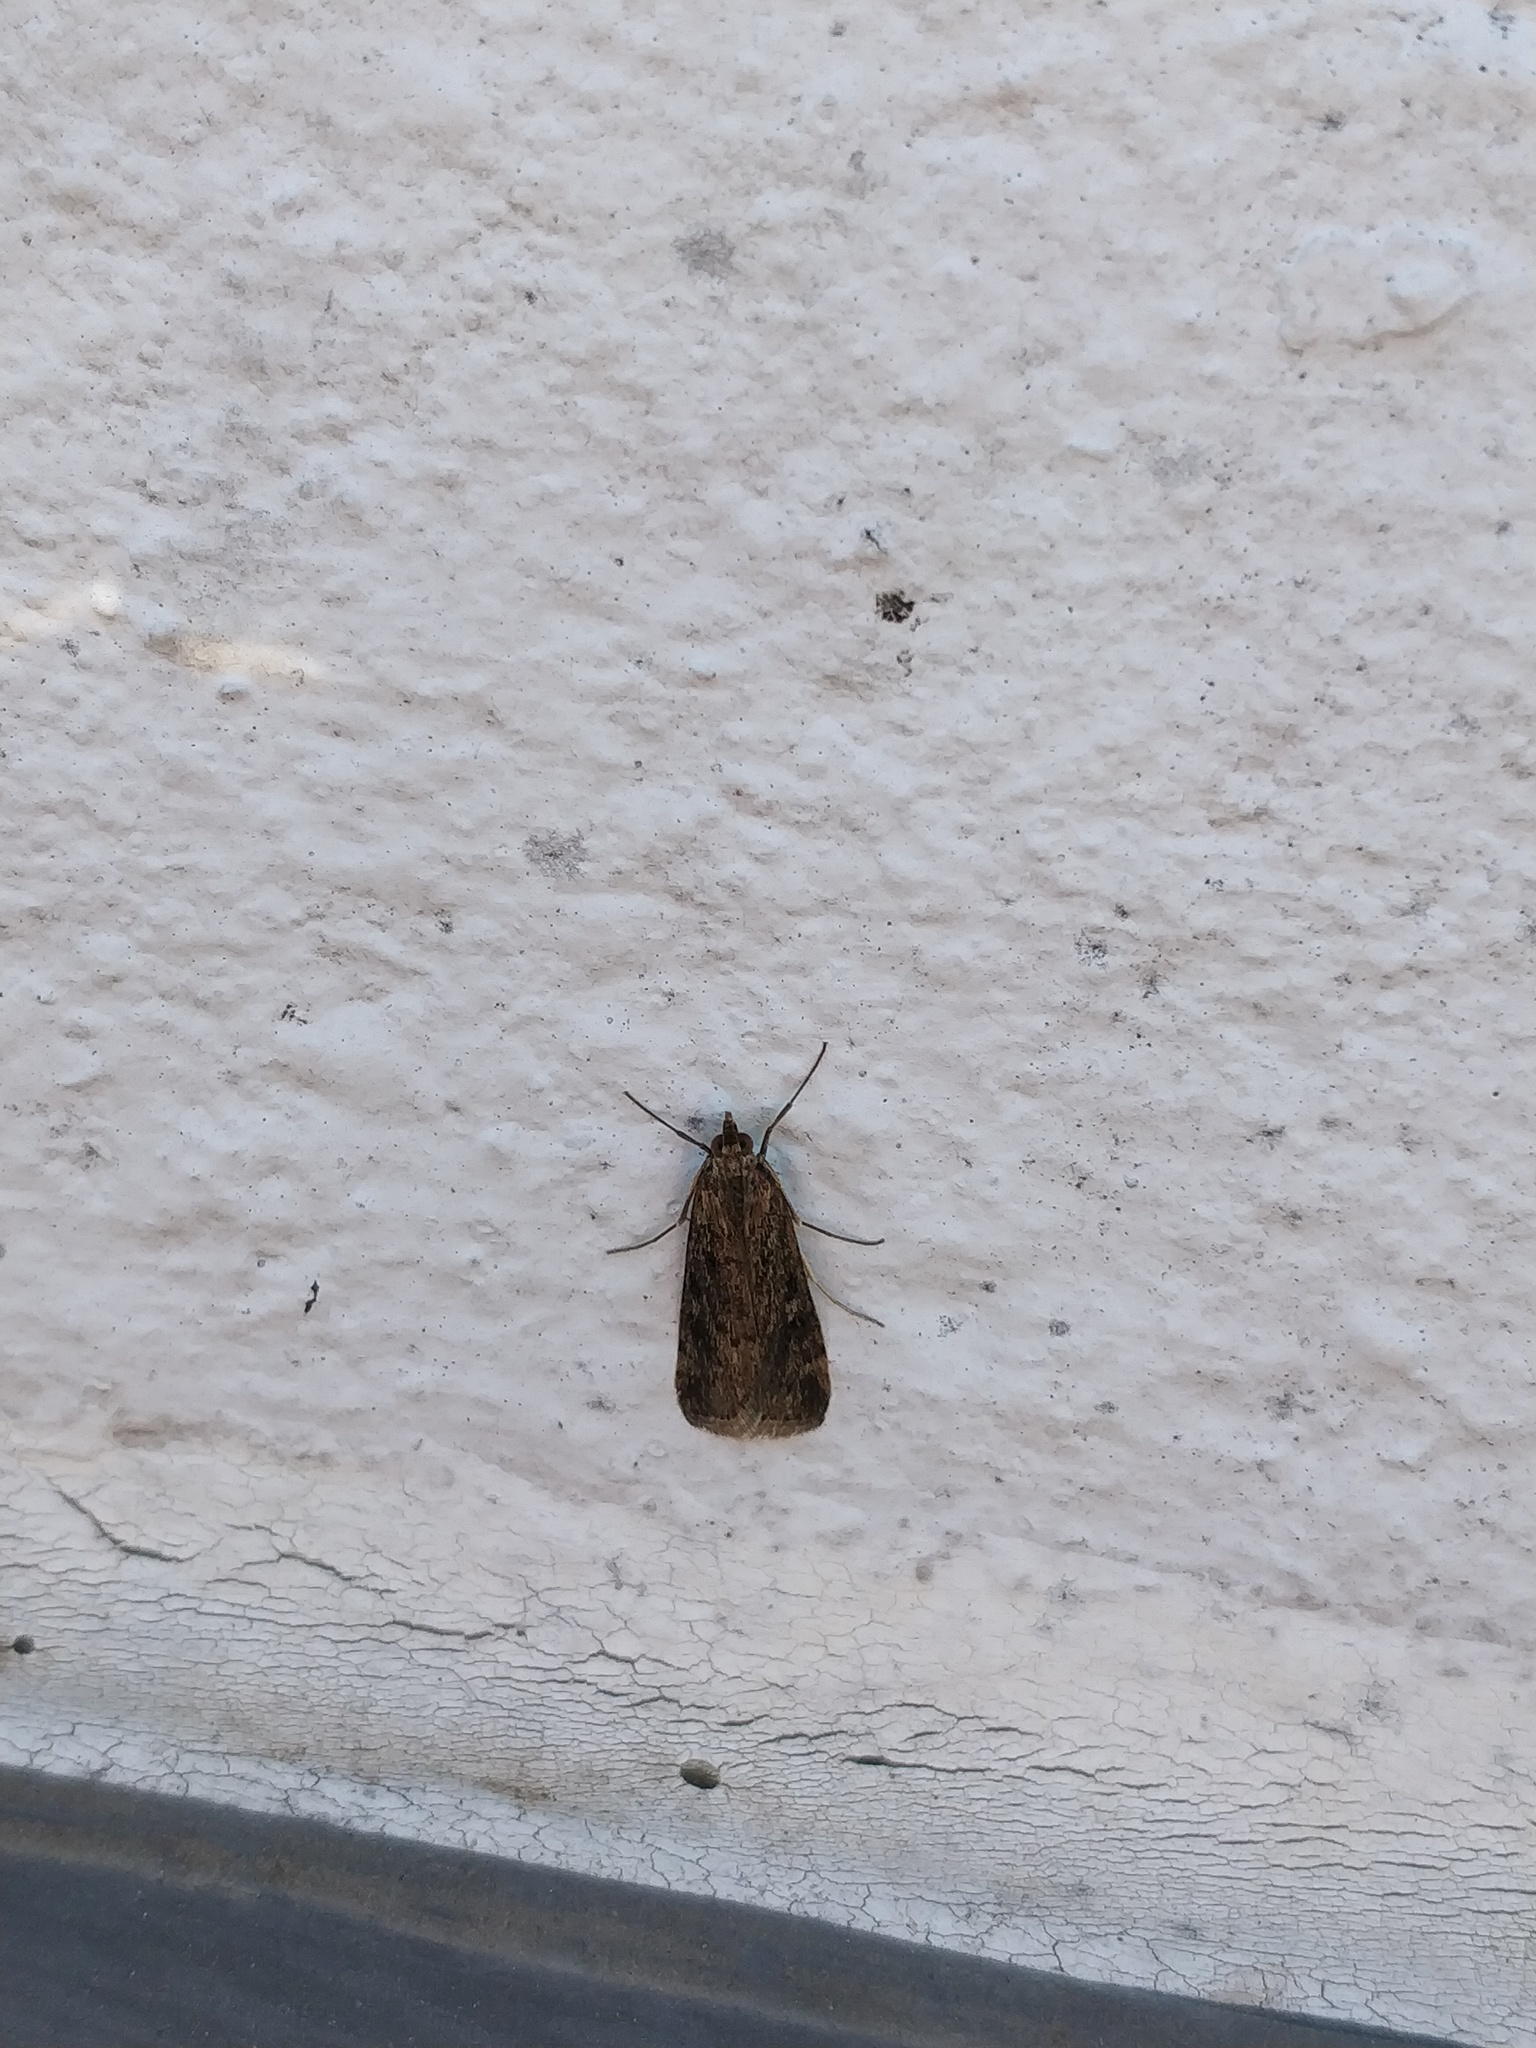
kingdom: Animalia
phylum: Arthropoda
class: Insecta
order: Lepidoptera
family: Crambidae
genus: Achyra
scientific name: Achyra affinitalis
